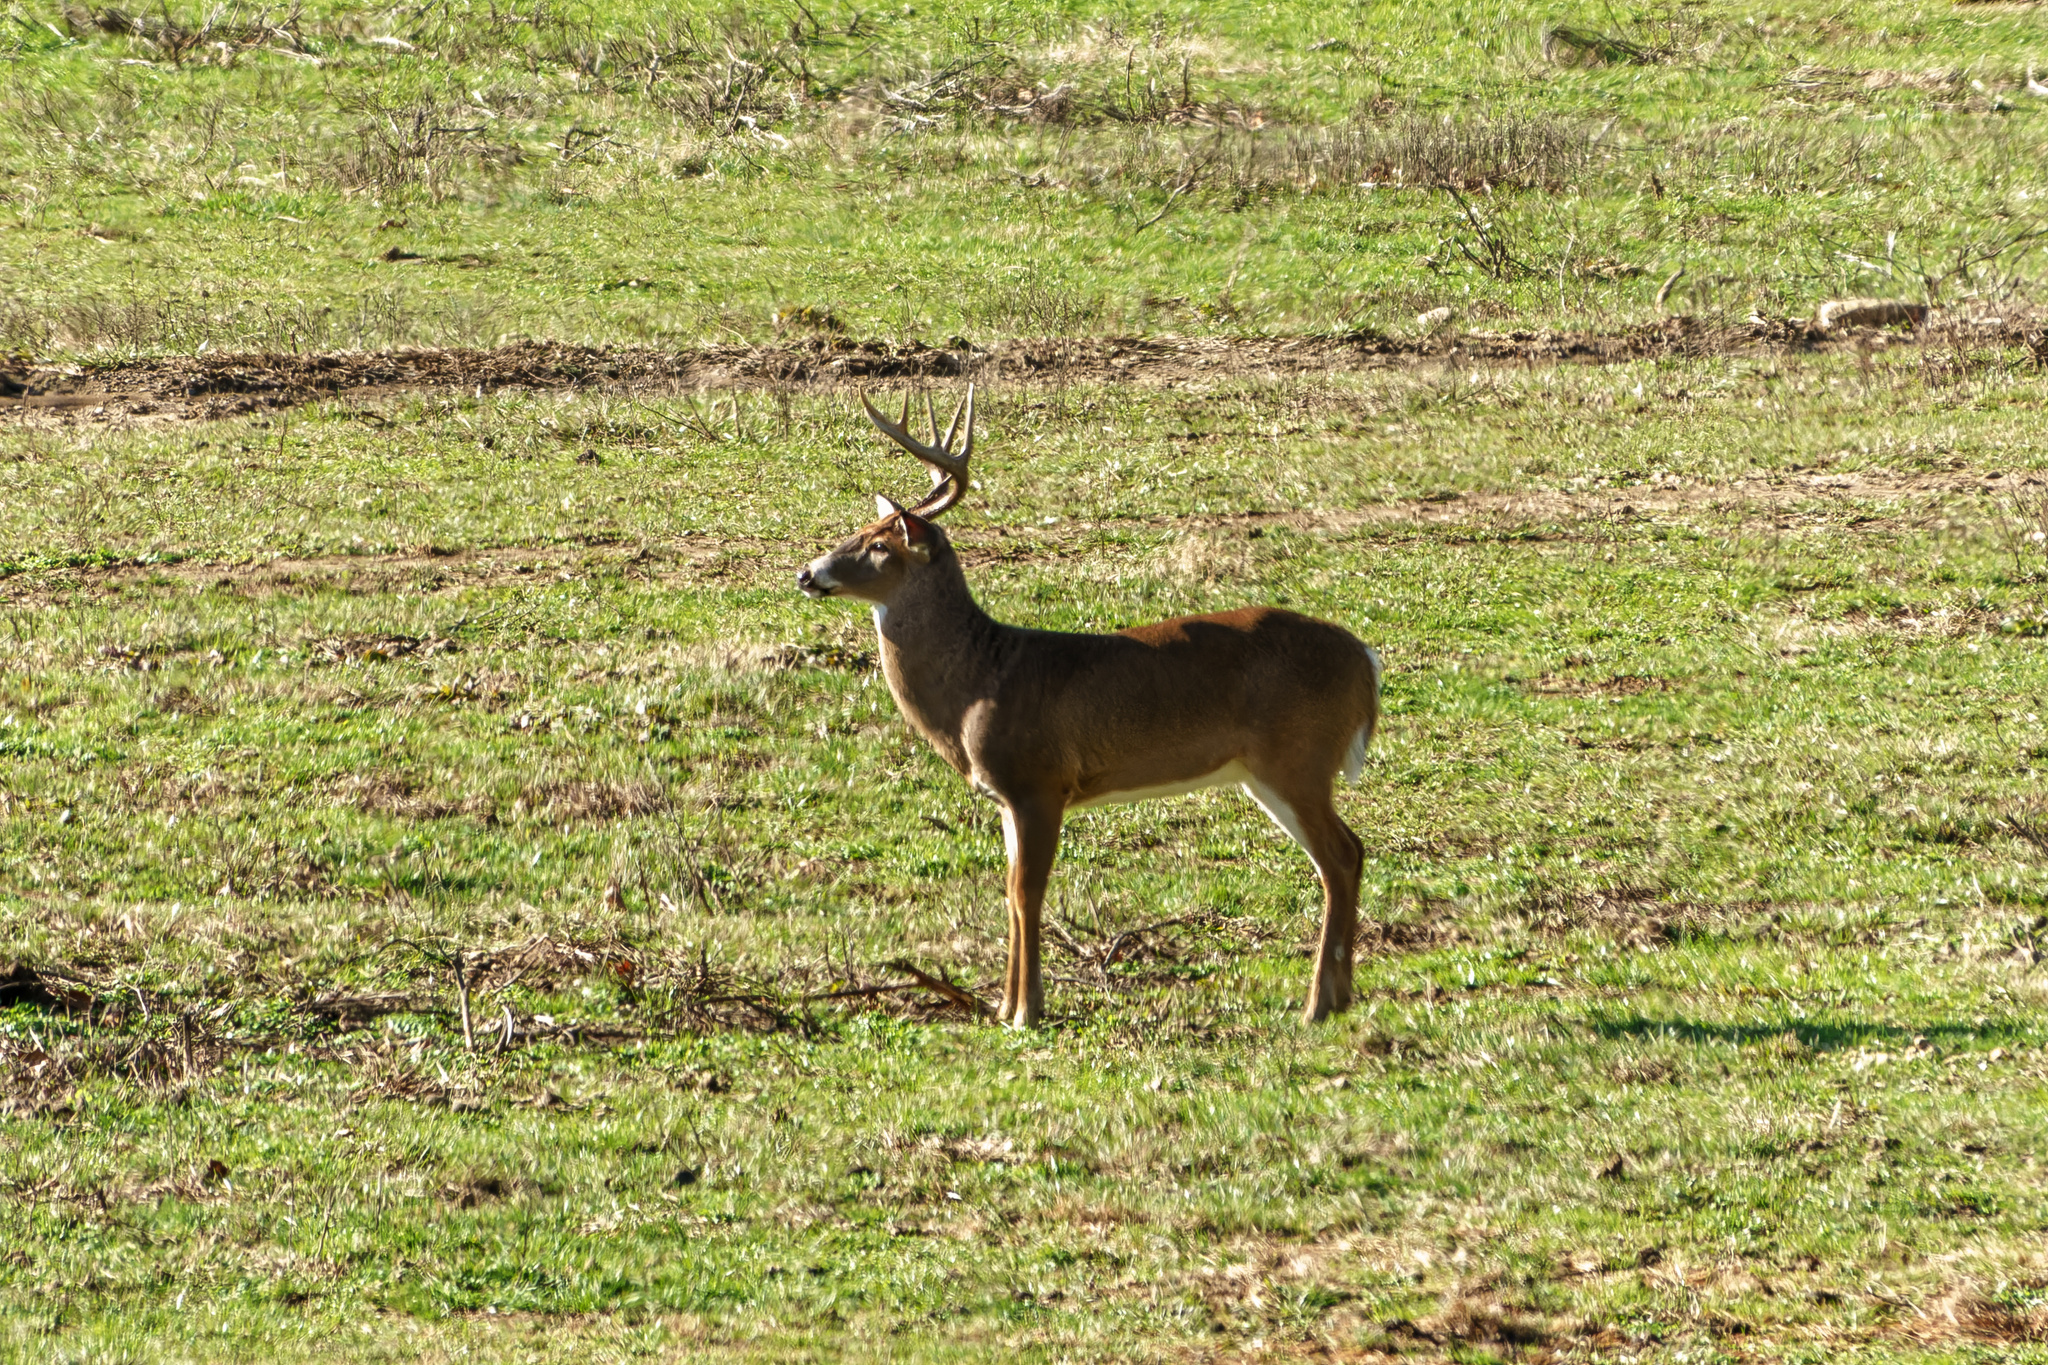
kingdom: Animalia
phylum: Chordata
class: Mammalia
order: Artiodactyla
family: Cervidae
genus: Odocoileus
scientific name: Odocoileus virginianus
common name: White-tailed deer
